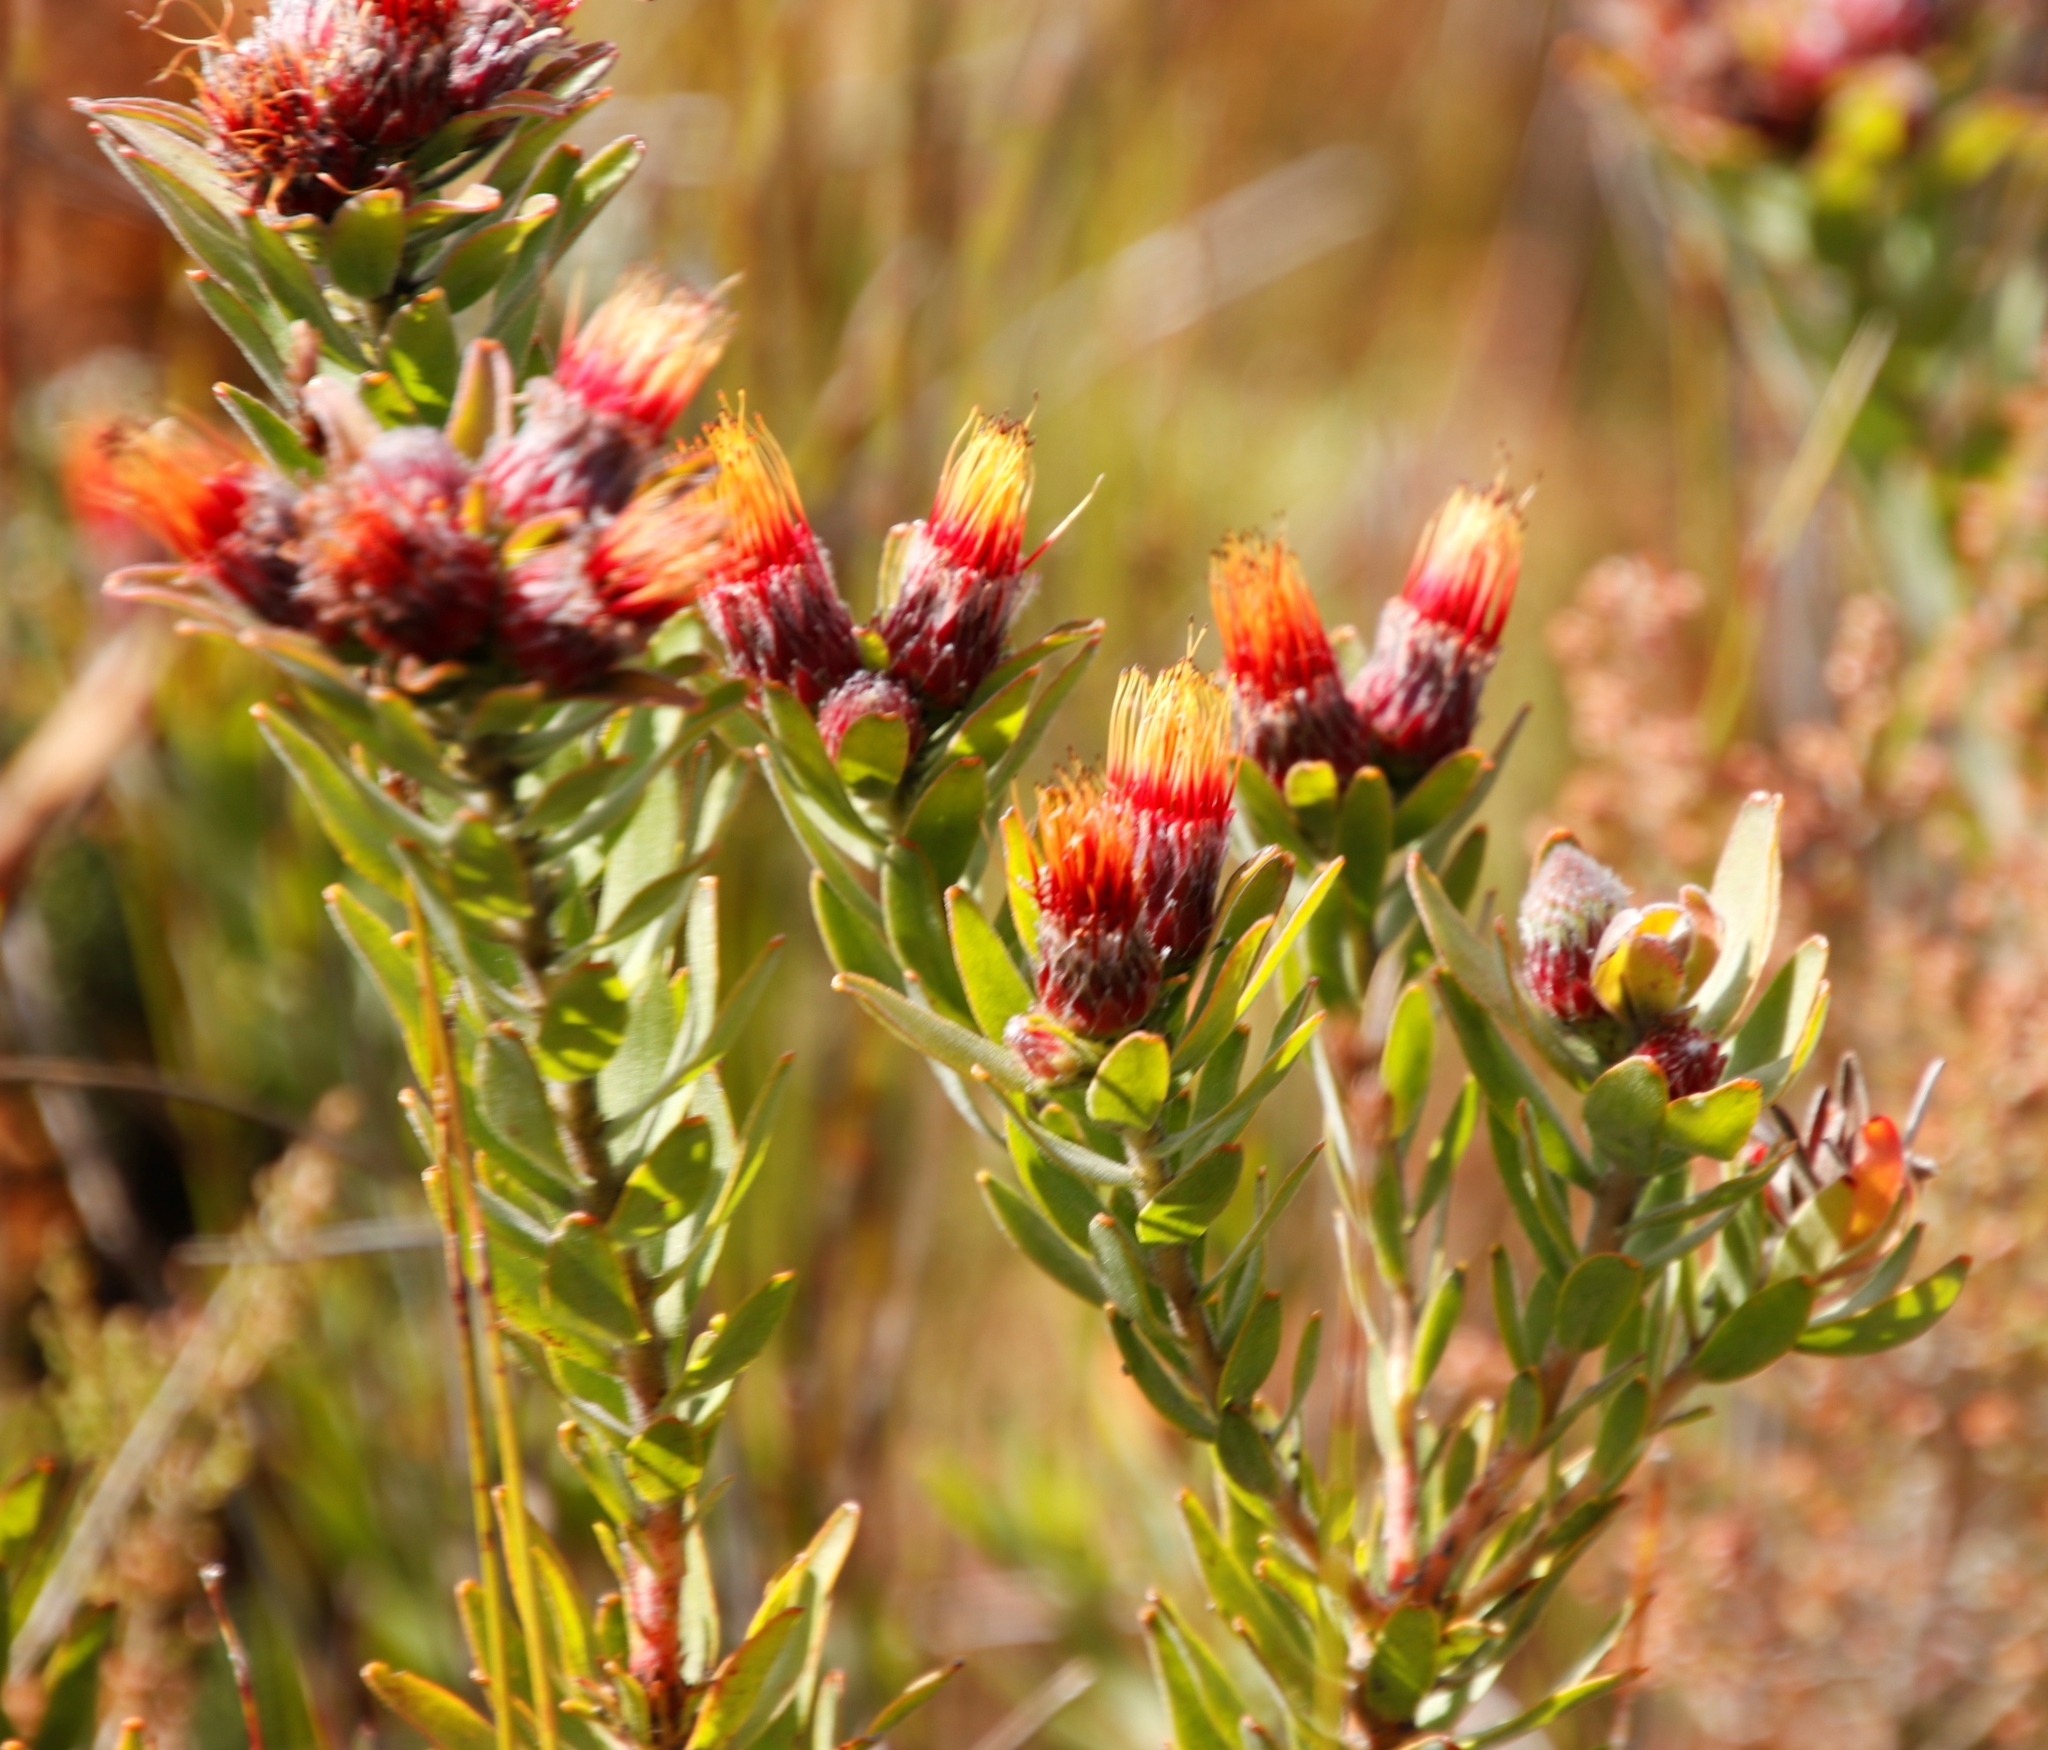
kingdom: Plantae
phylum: Tracheophyta
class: Magnoliopsida
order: Proteales
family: Proteaceae
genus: Leucospermum
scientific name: Leucospermum oleifolium
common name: Matches
